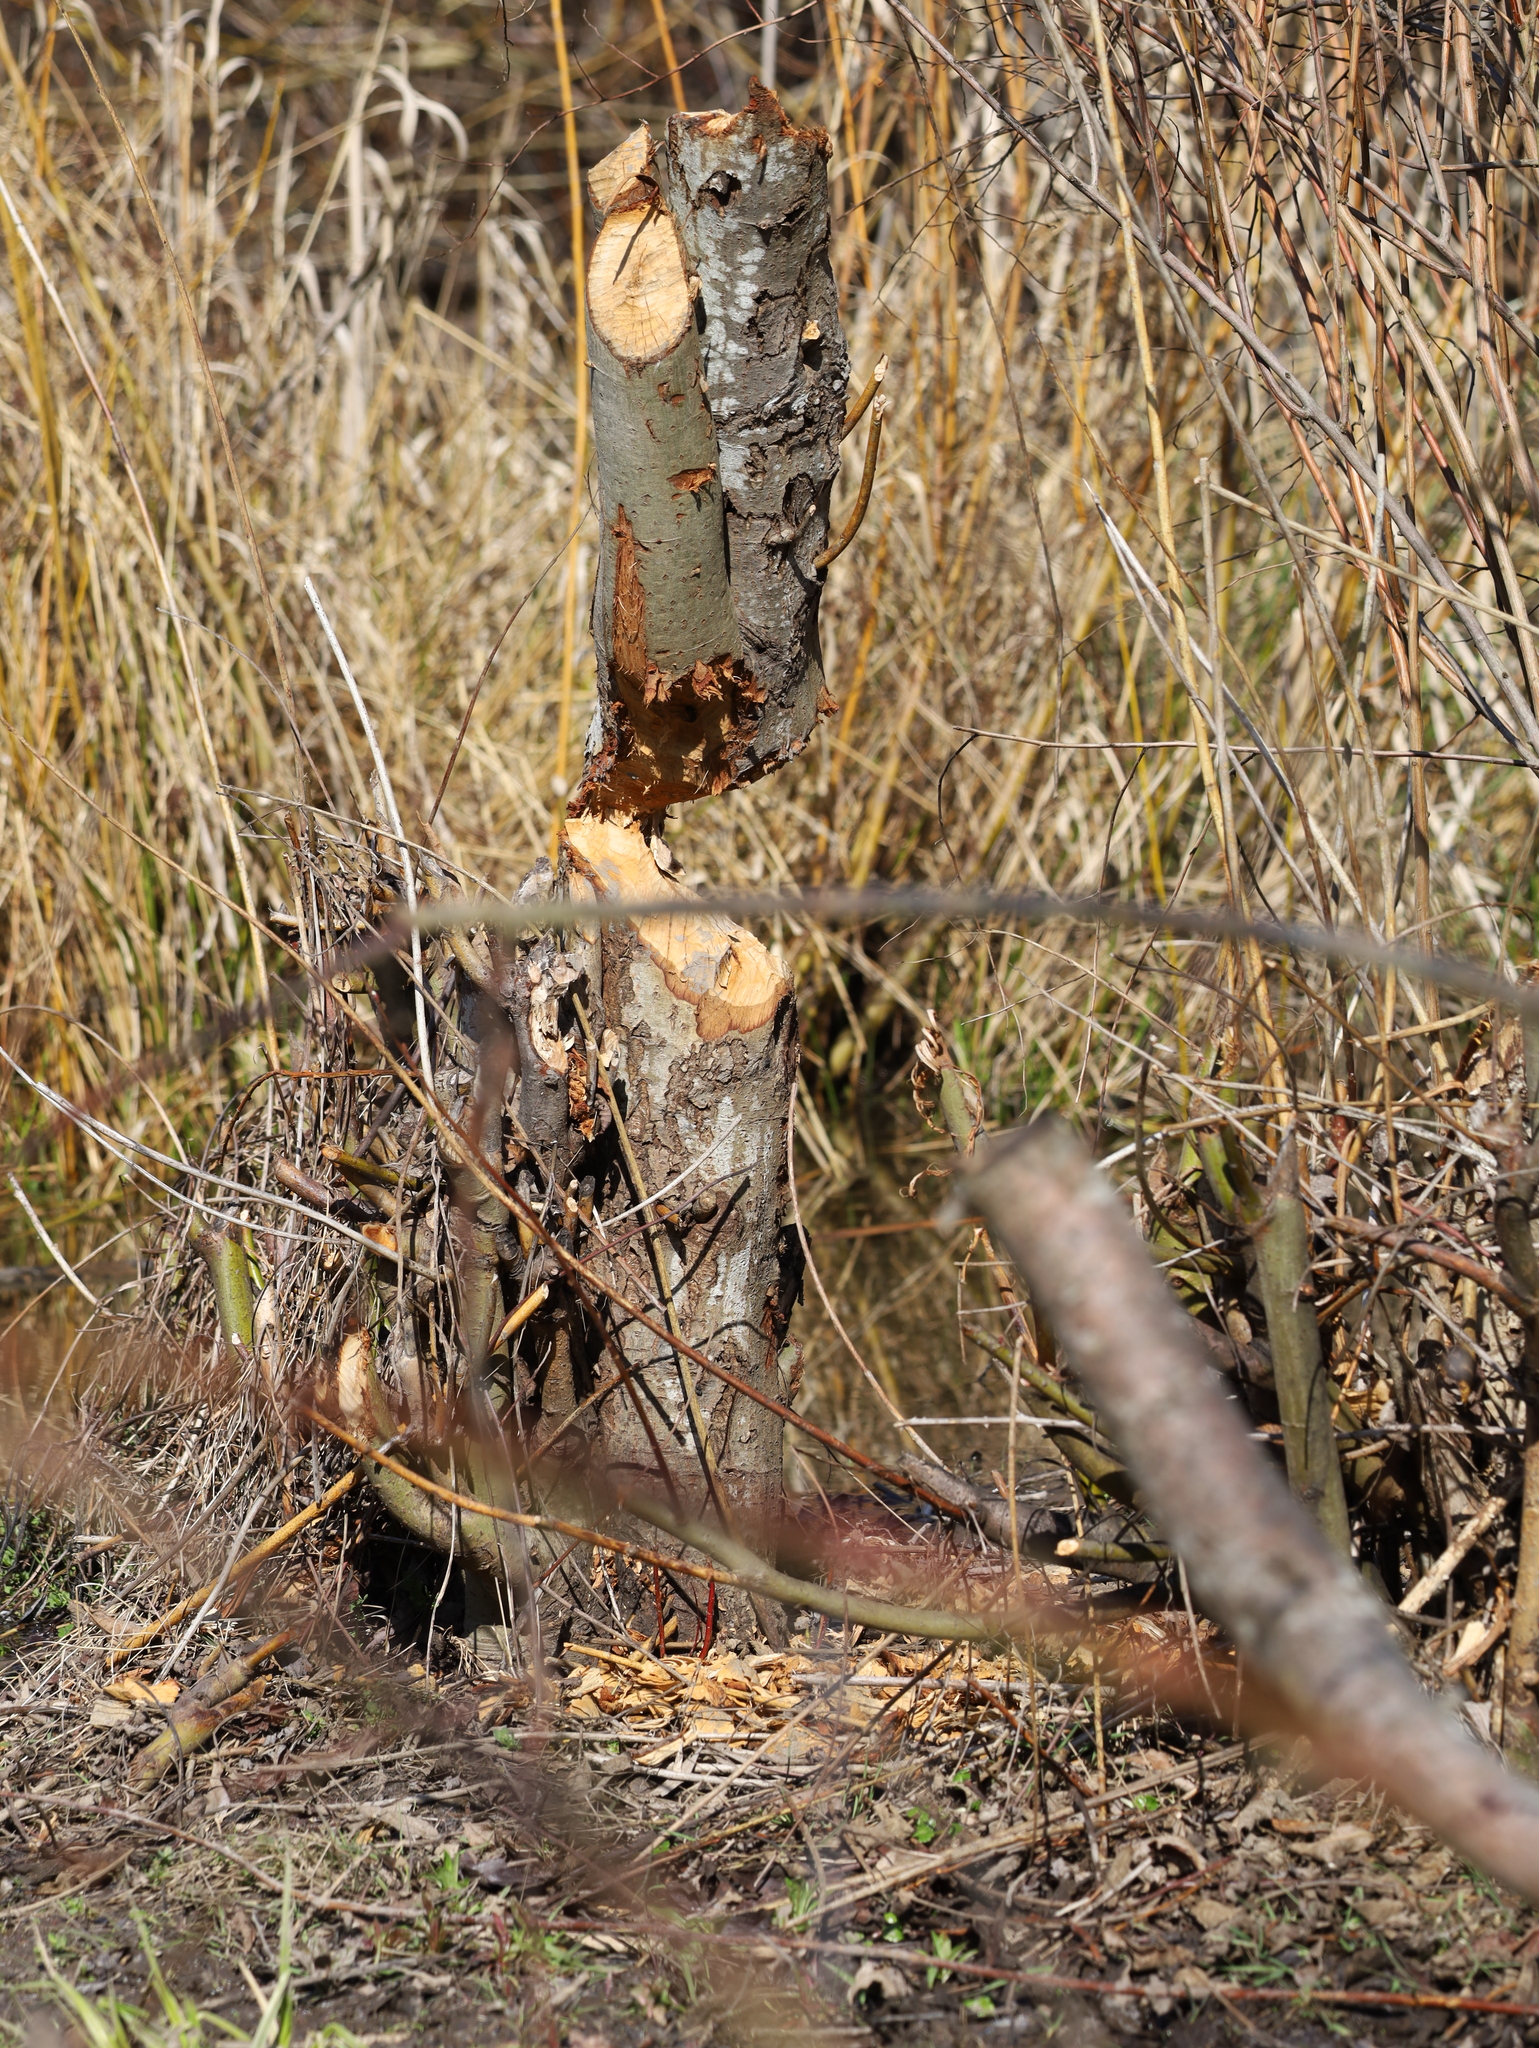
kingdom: Animalia
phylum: Chordata
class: Mammalia
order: Rodentia
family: Castoridae
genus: Castor
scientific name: Castor canadensis
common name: American beaver
